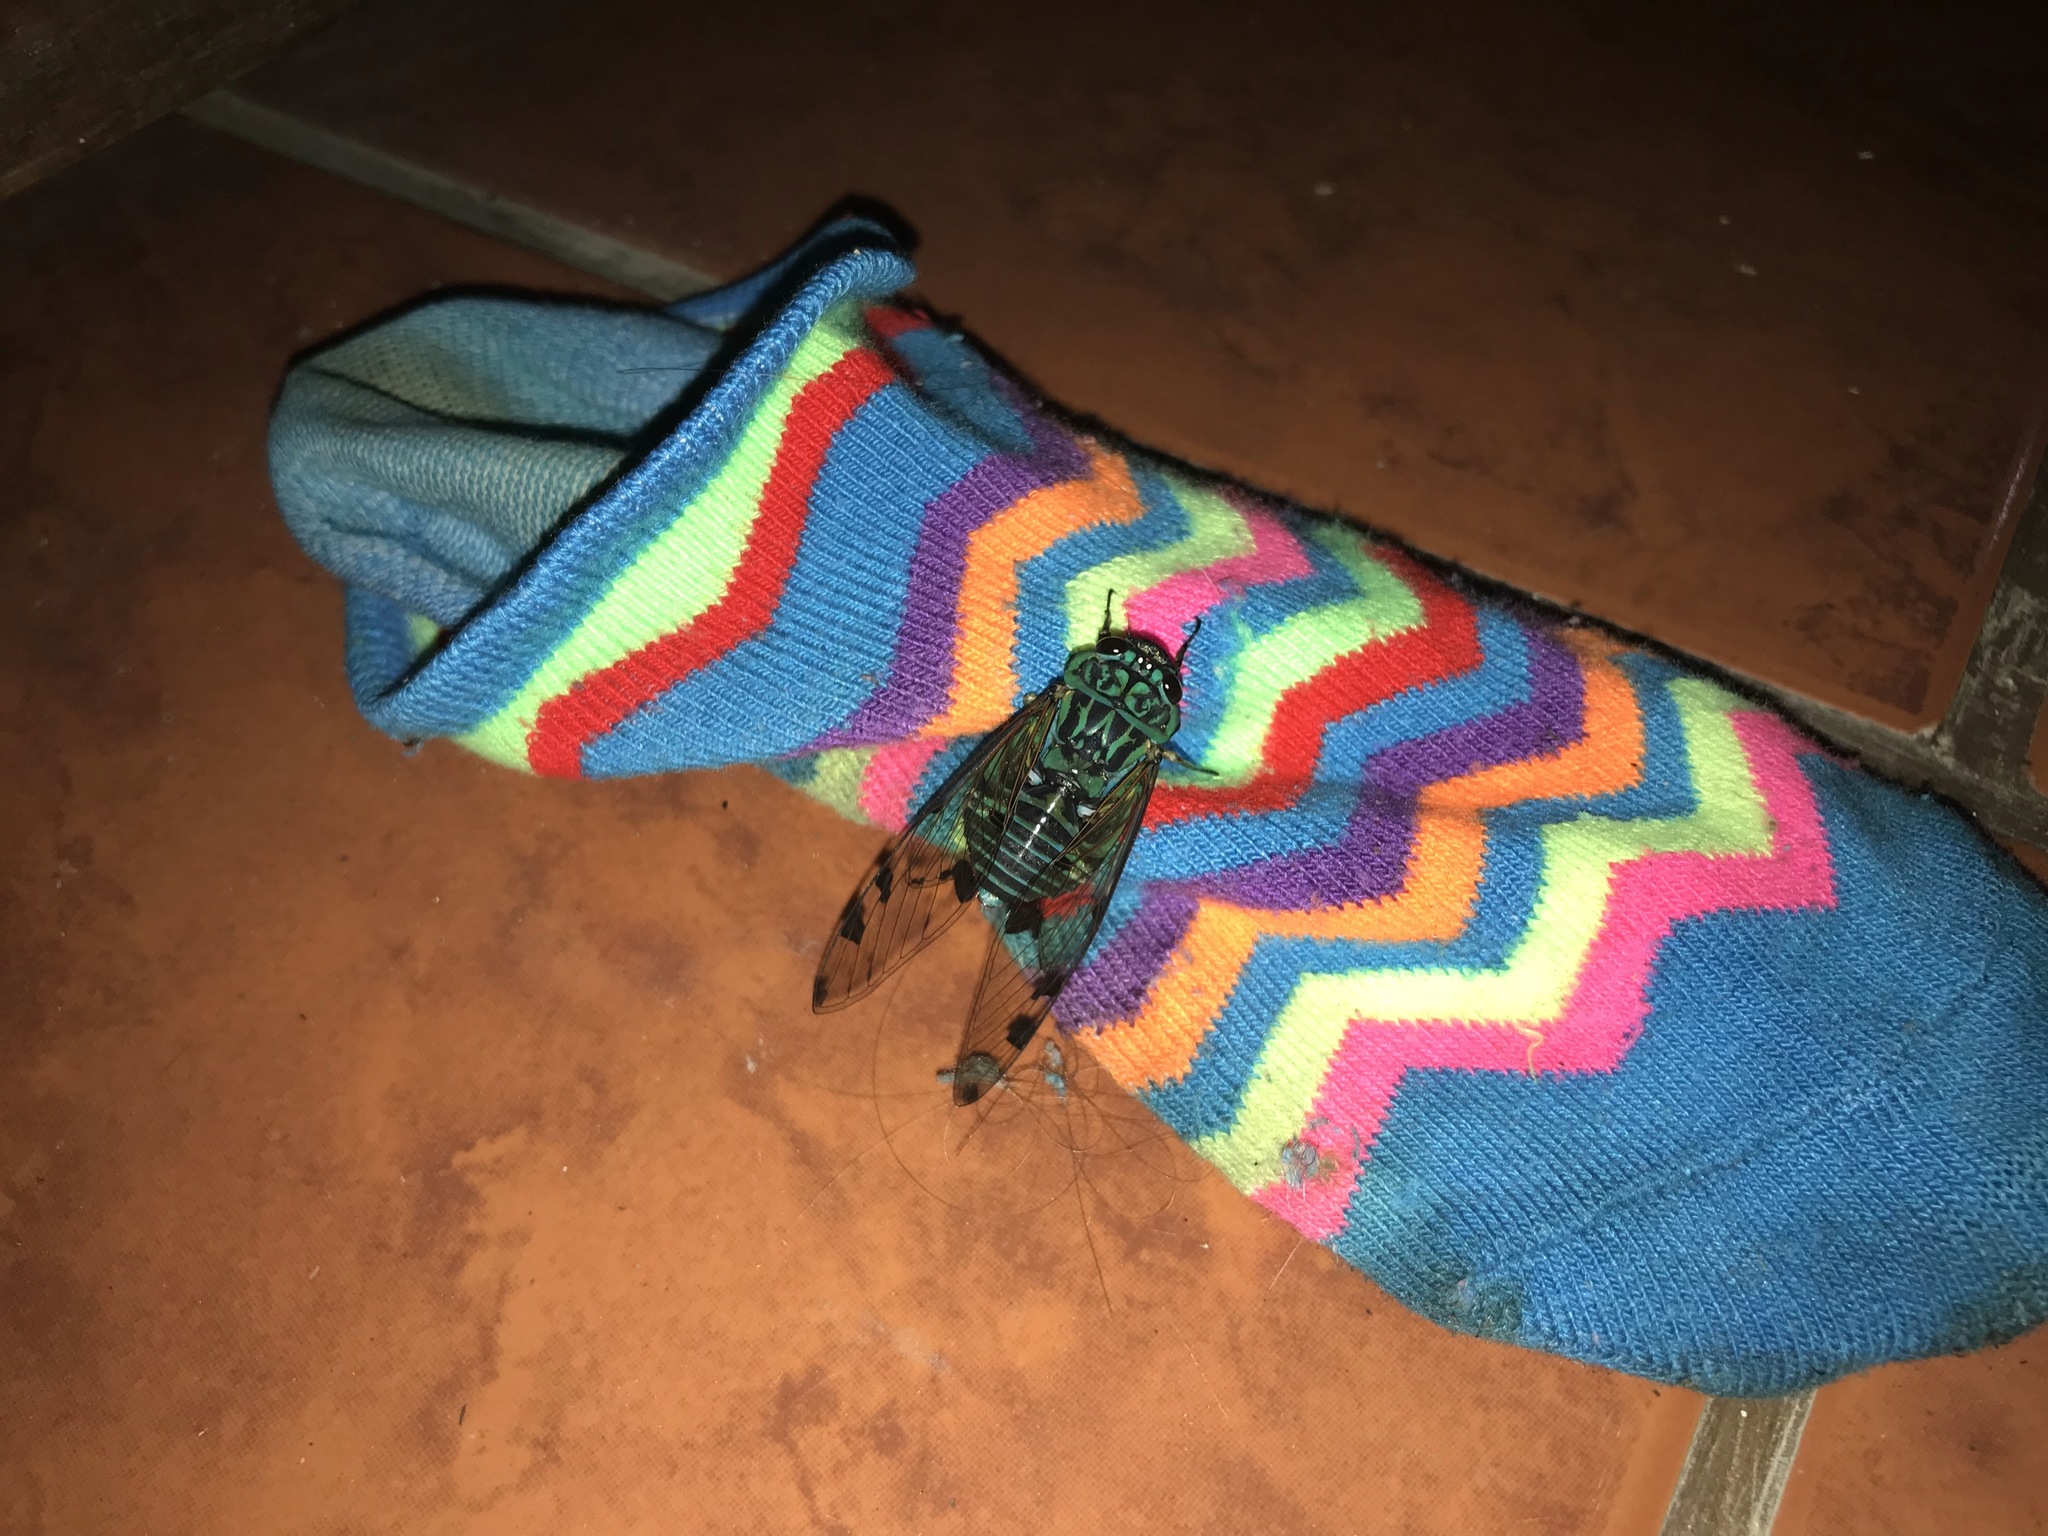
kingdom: Animalia
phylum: Arthropoda
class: Insecta
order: Hemiptera
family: Cicadidae
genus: Zammara
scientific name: Zammara smaragdula
